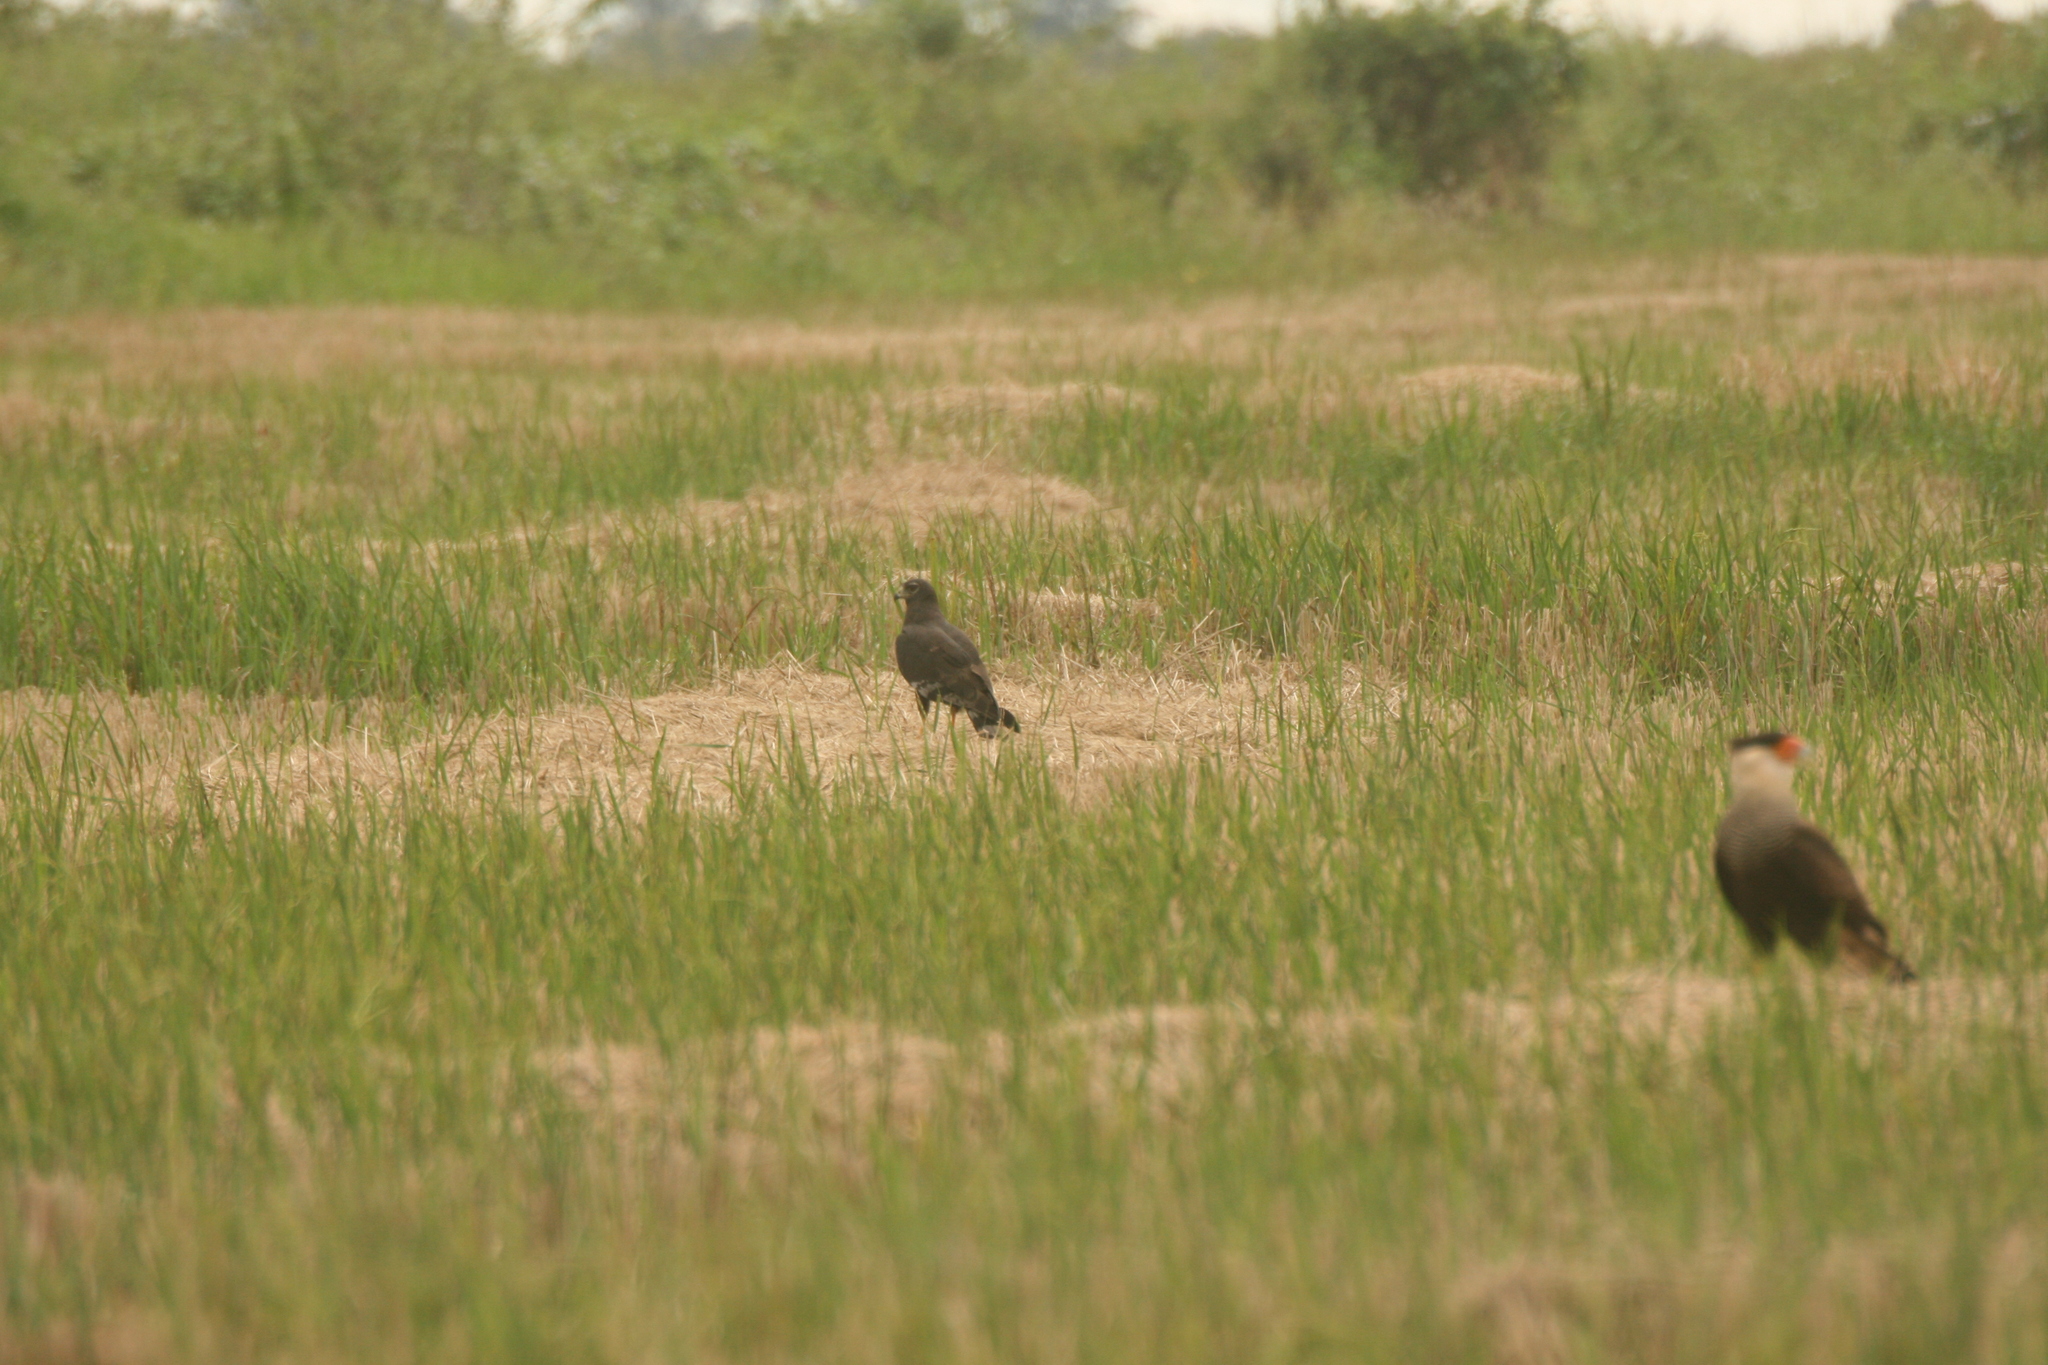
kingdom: Animalia
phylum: Chordata
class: Aves
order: Accipitriformes
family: Accipitridae
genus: Circus
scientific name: Circus buffoni
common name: Long-winged harrier
